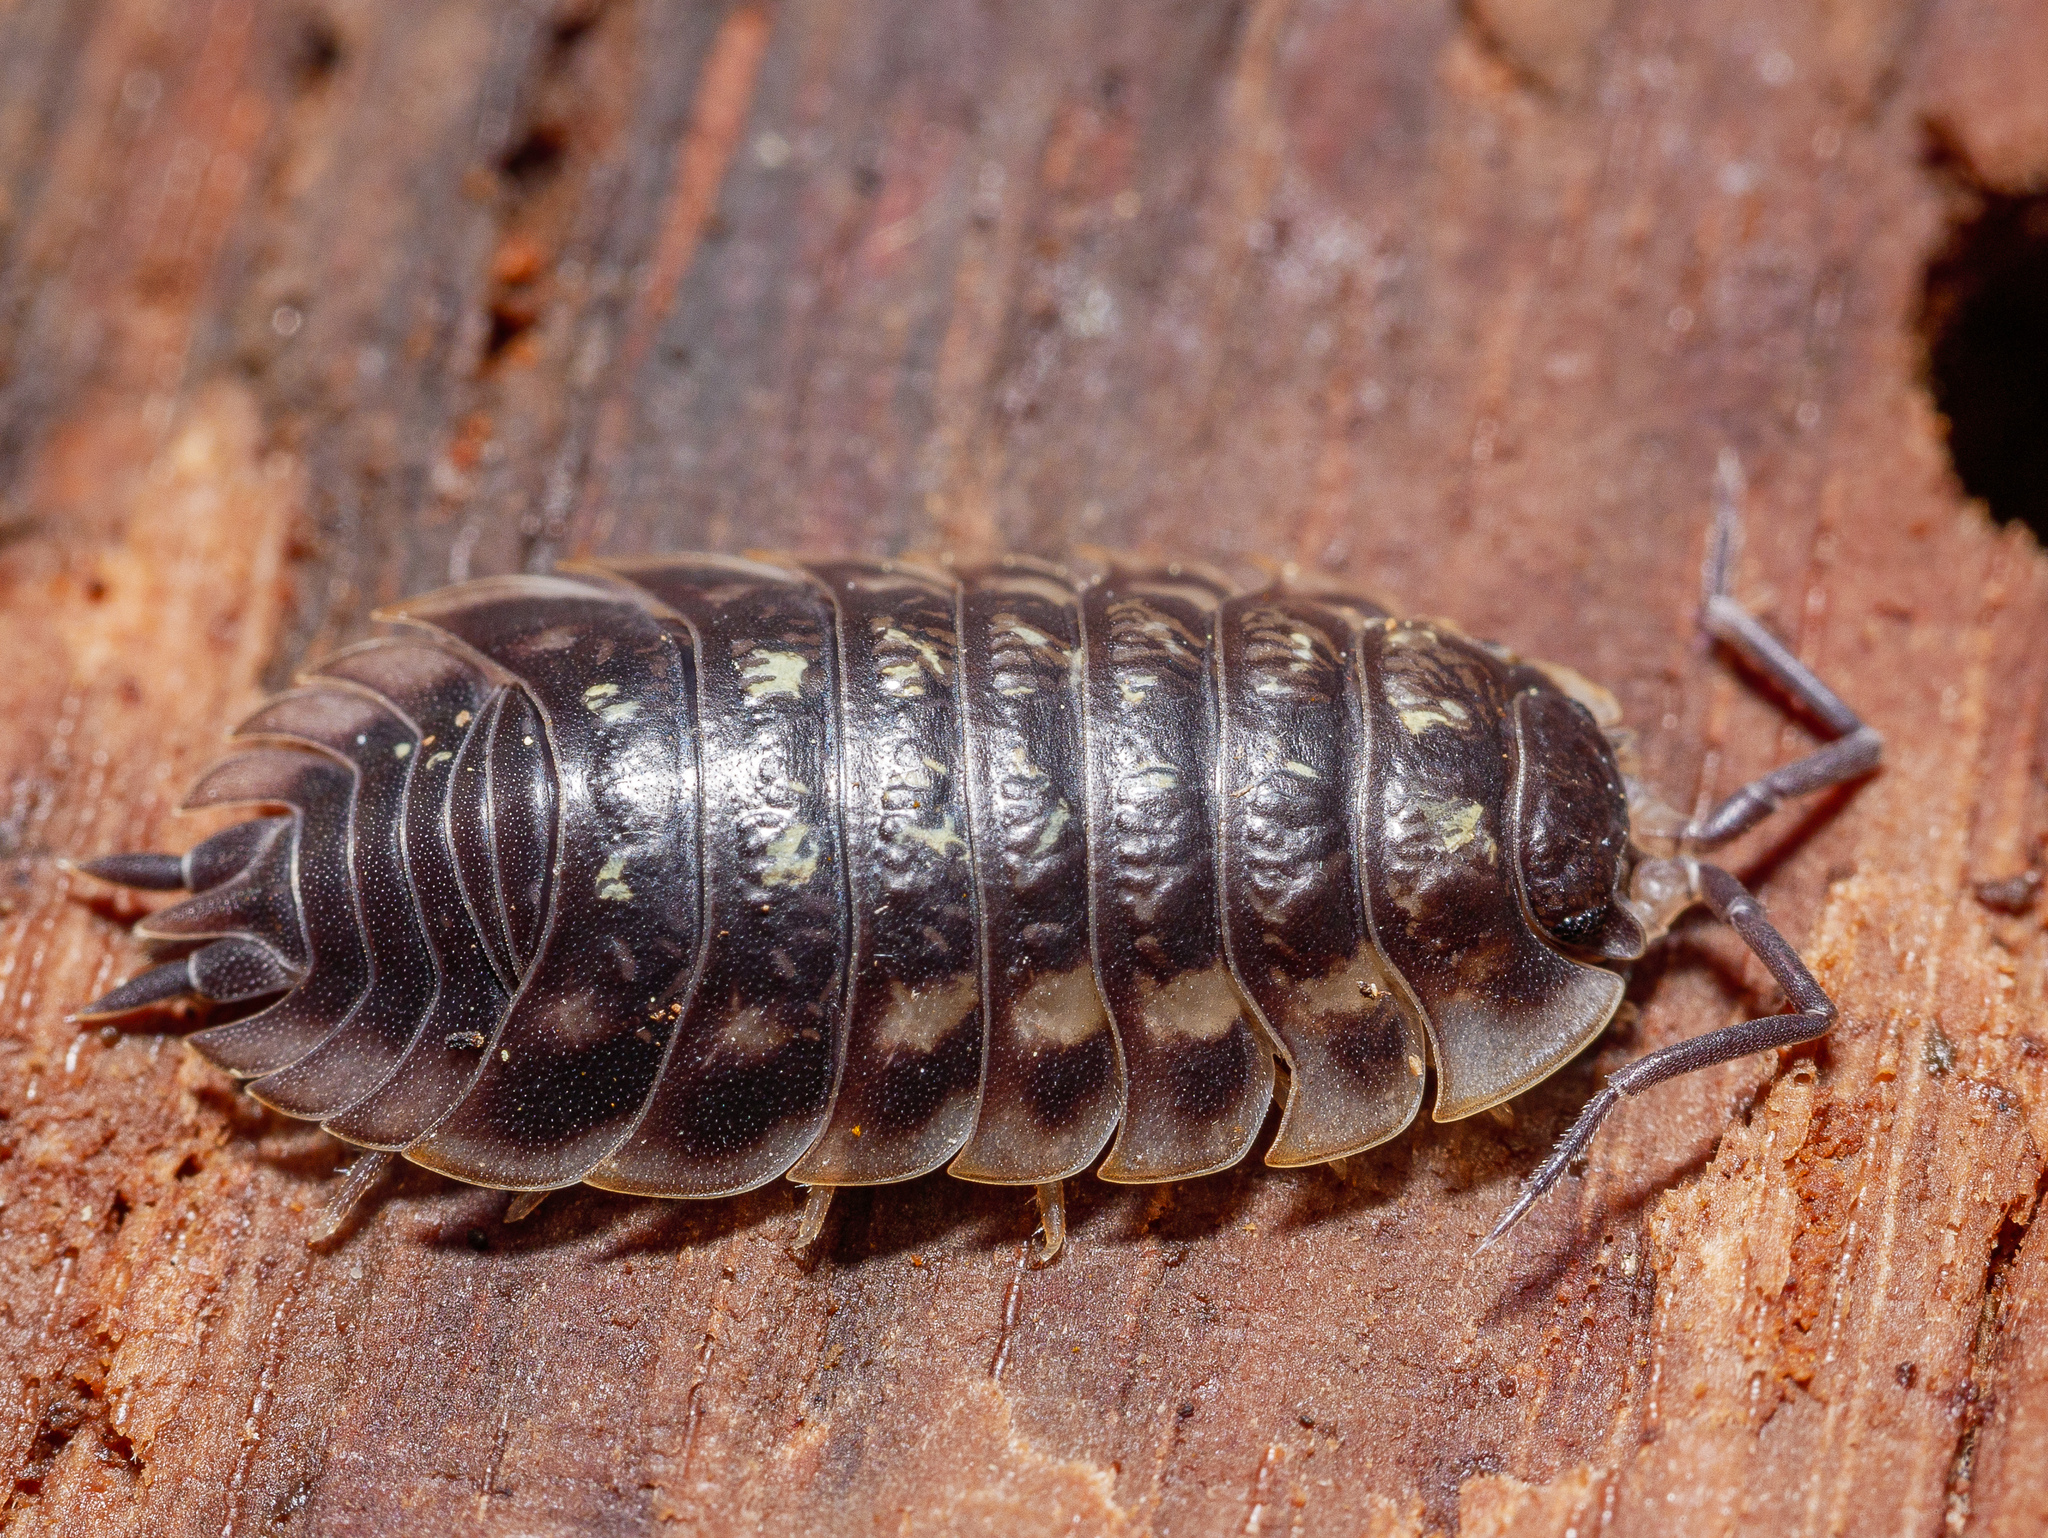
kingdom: Animalia
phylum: Arthropoda
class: Malacostraca
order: Isopoda
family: Oniscidae
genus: Oniscus
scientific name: Oniscus asellus
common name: Common shiny woodlouse
